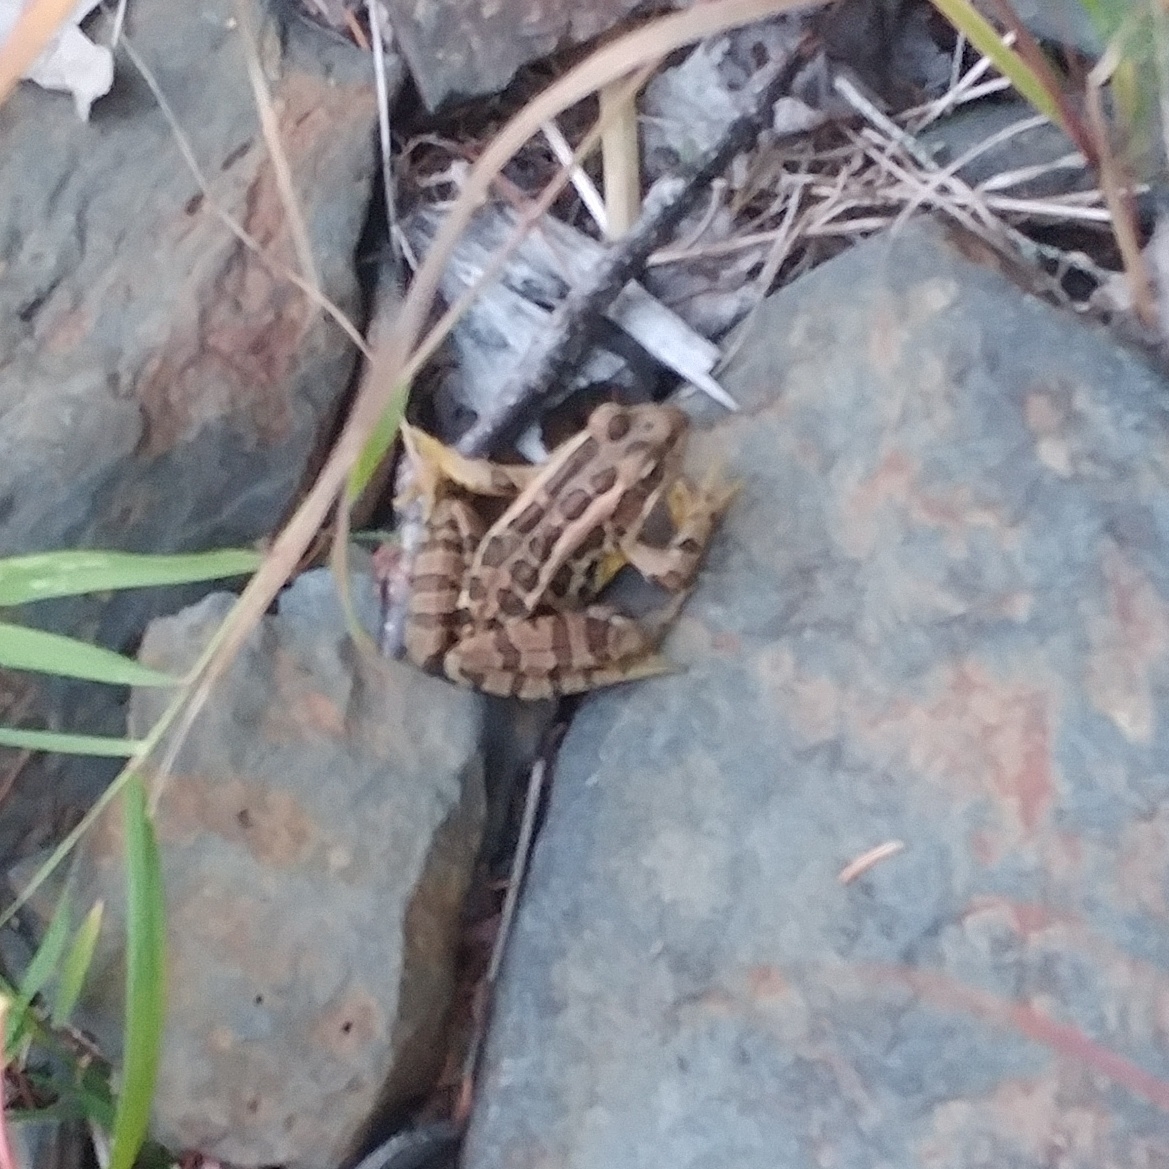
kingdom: Animalia
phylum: Chordata
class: Amphibia
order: Anura
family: Ranidae
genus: Lithobates
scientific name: Lithobates palustris
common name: Pickerel frog
